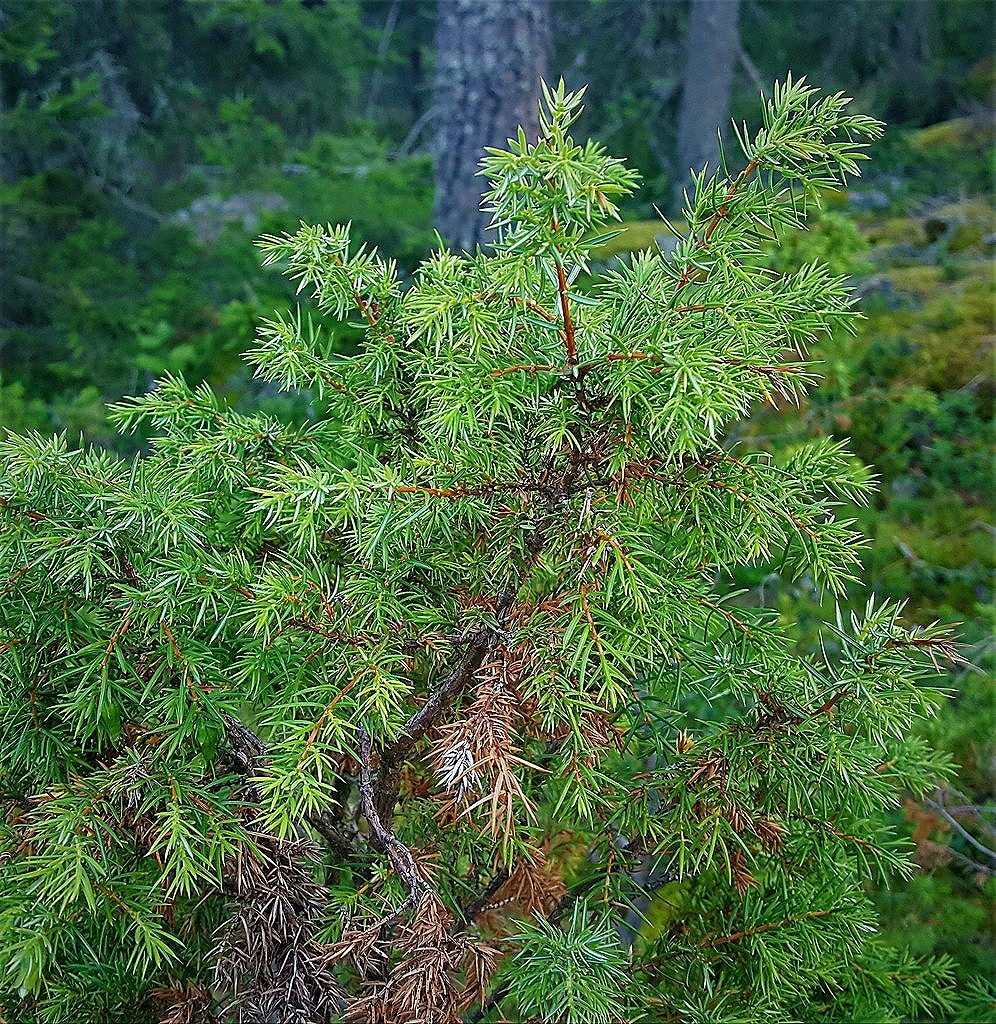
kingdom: Plantae
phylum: Tracheophyta
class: Pinopsida
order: Pinales
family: Cupressaceae
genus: Juniperus
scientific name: Juniperus communis
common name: Common juniper
